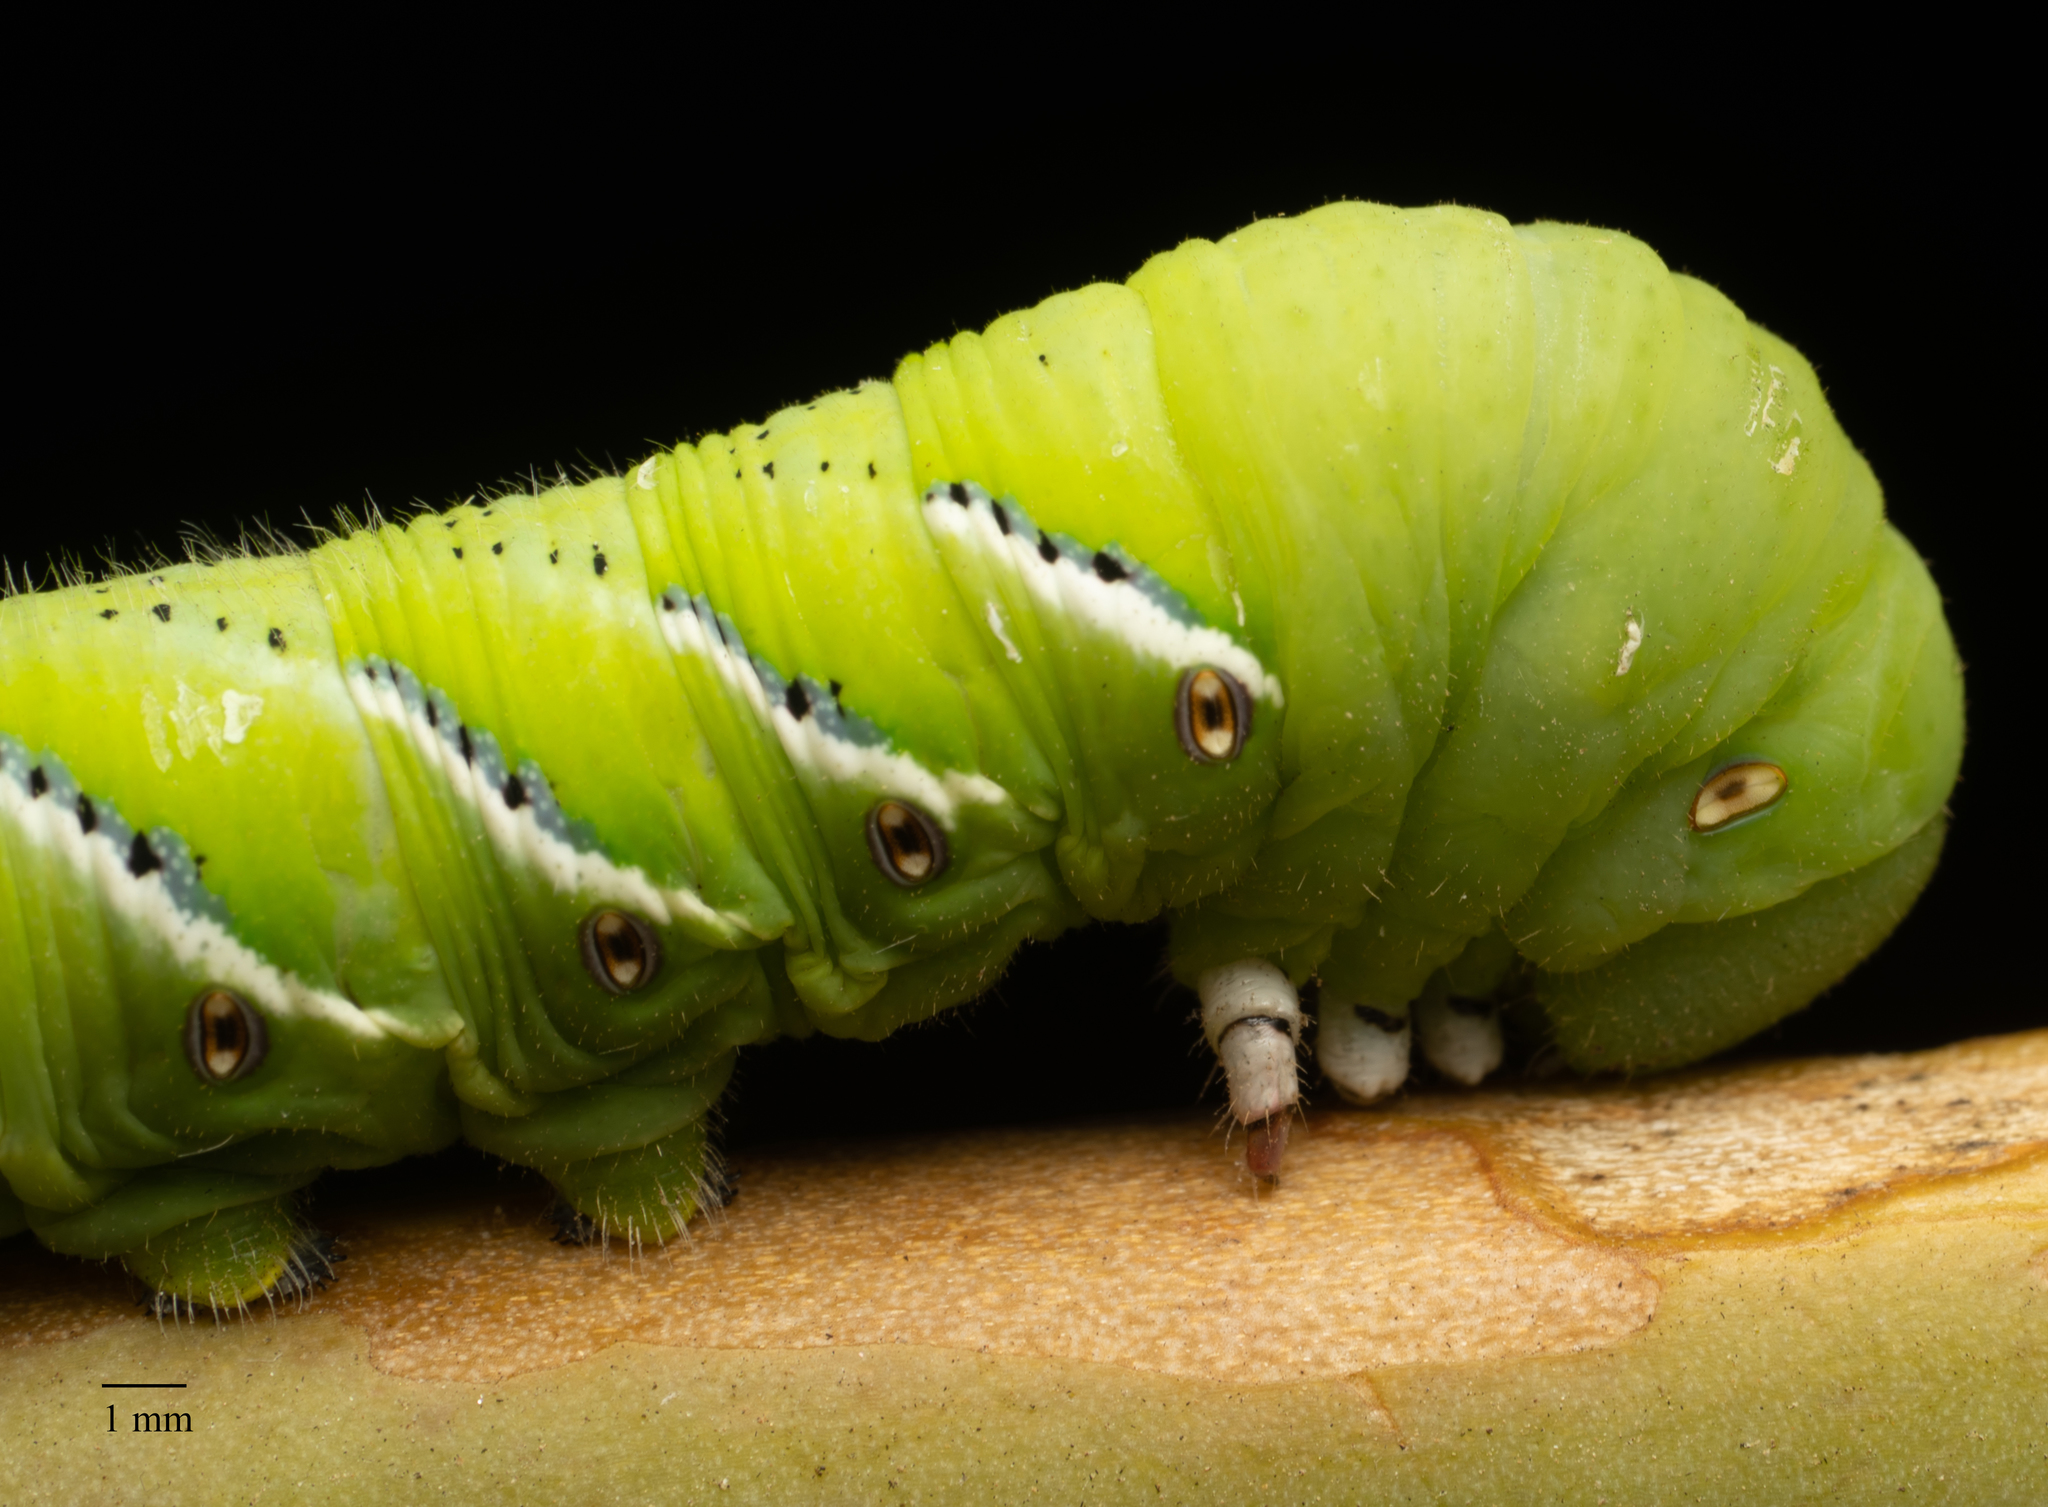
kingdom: Animalia
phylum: Arthropoda
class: Insecta
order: Lepidoptera
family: Sphingidae
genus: Manduca
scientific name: Manduca sexta
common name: Carolina sphinx
